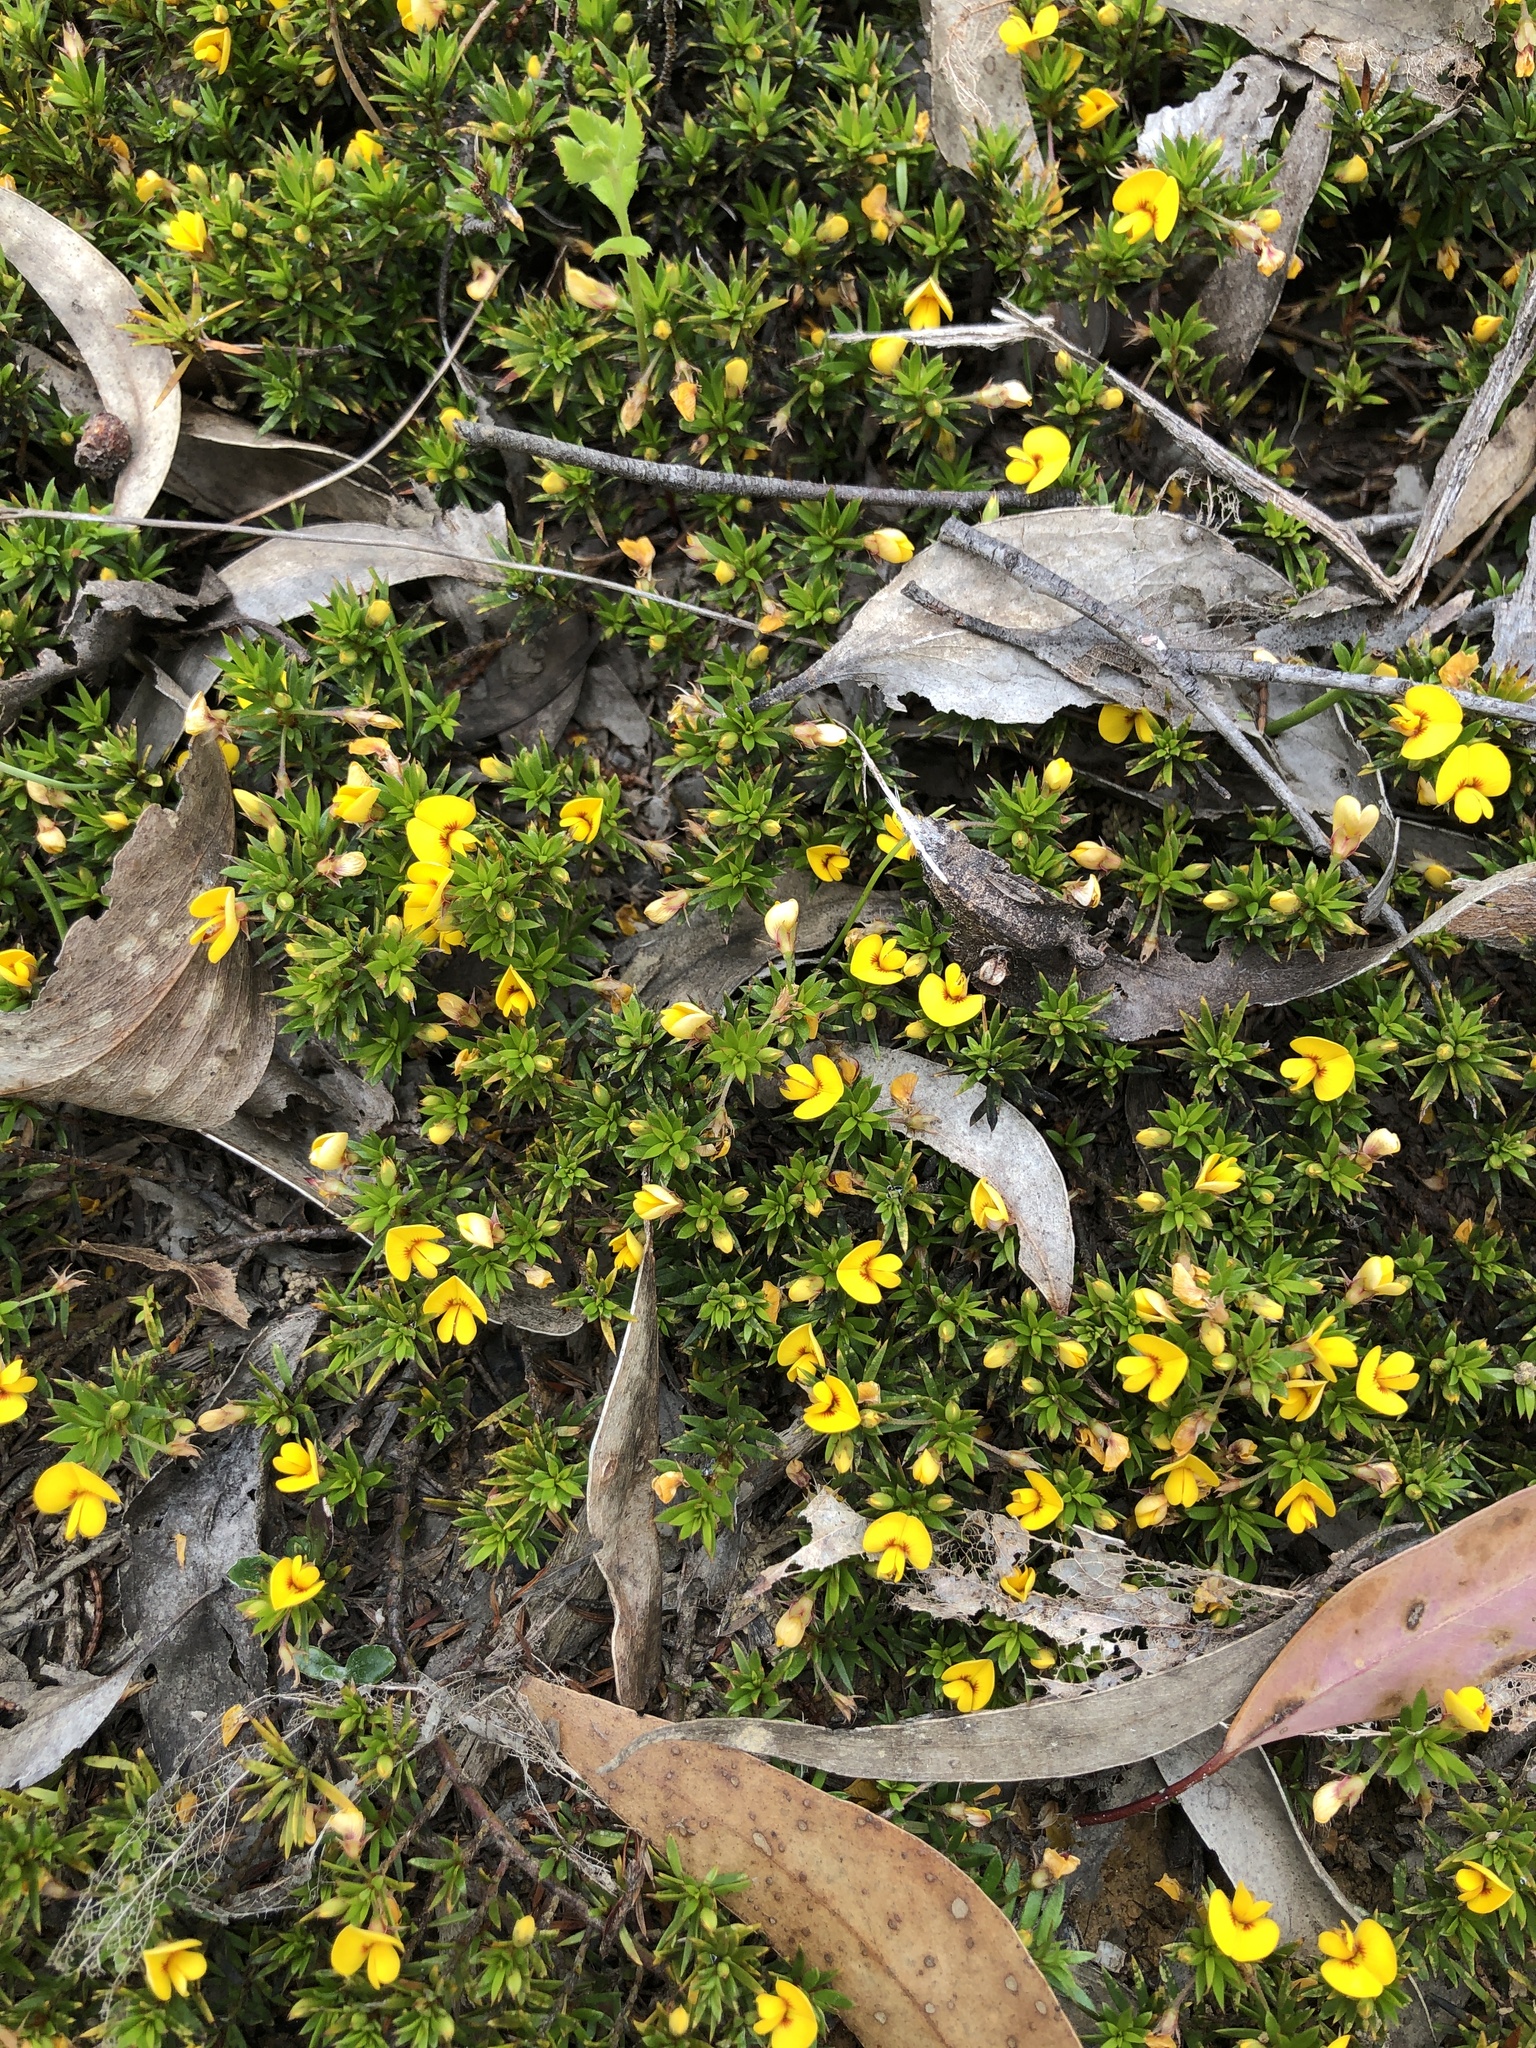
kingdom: Plantae
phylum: Tracheophyta
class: Magnoliopsida
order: Fabales
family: Fabaceae
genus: Pultenaea
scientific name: Pultenaea pedunculata
